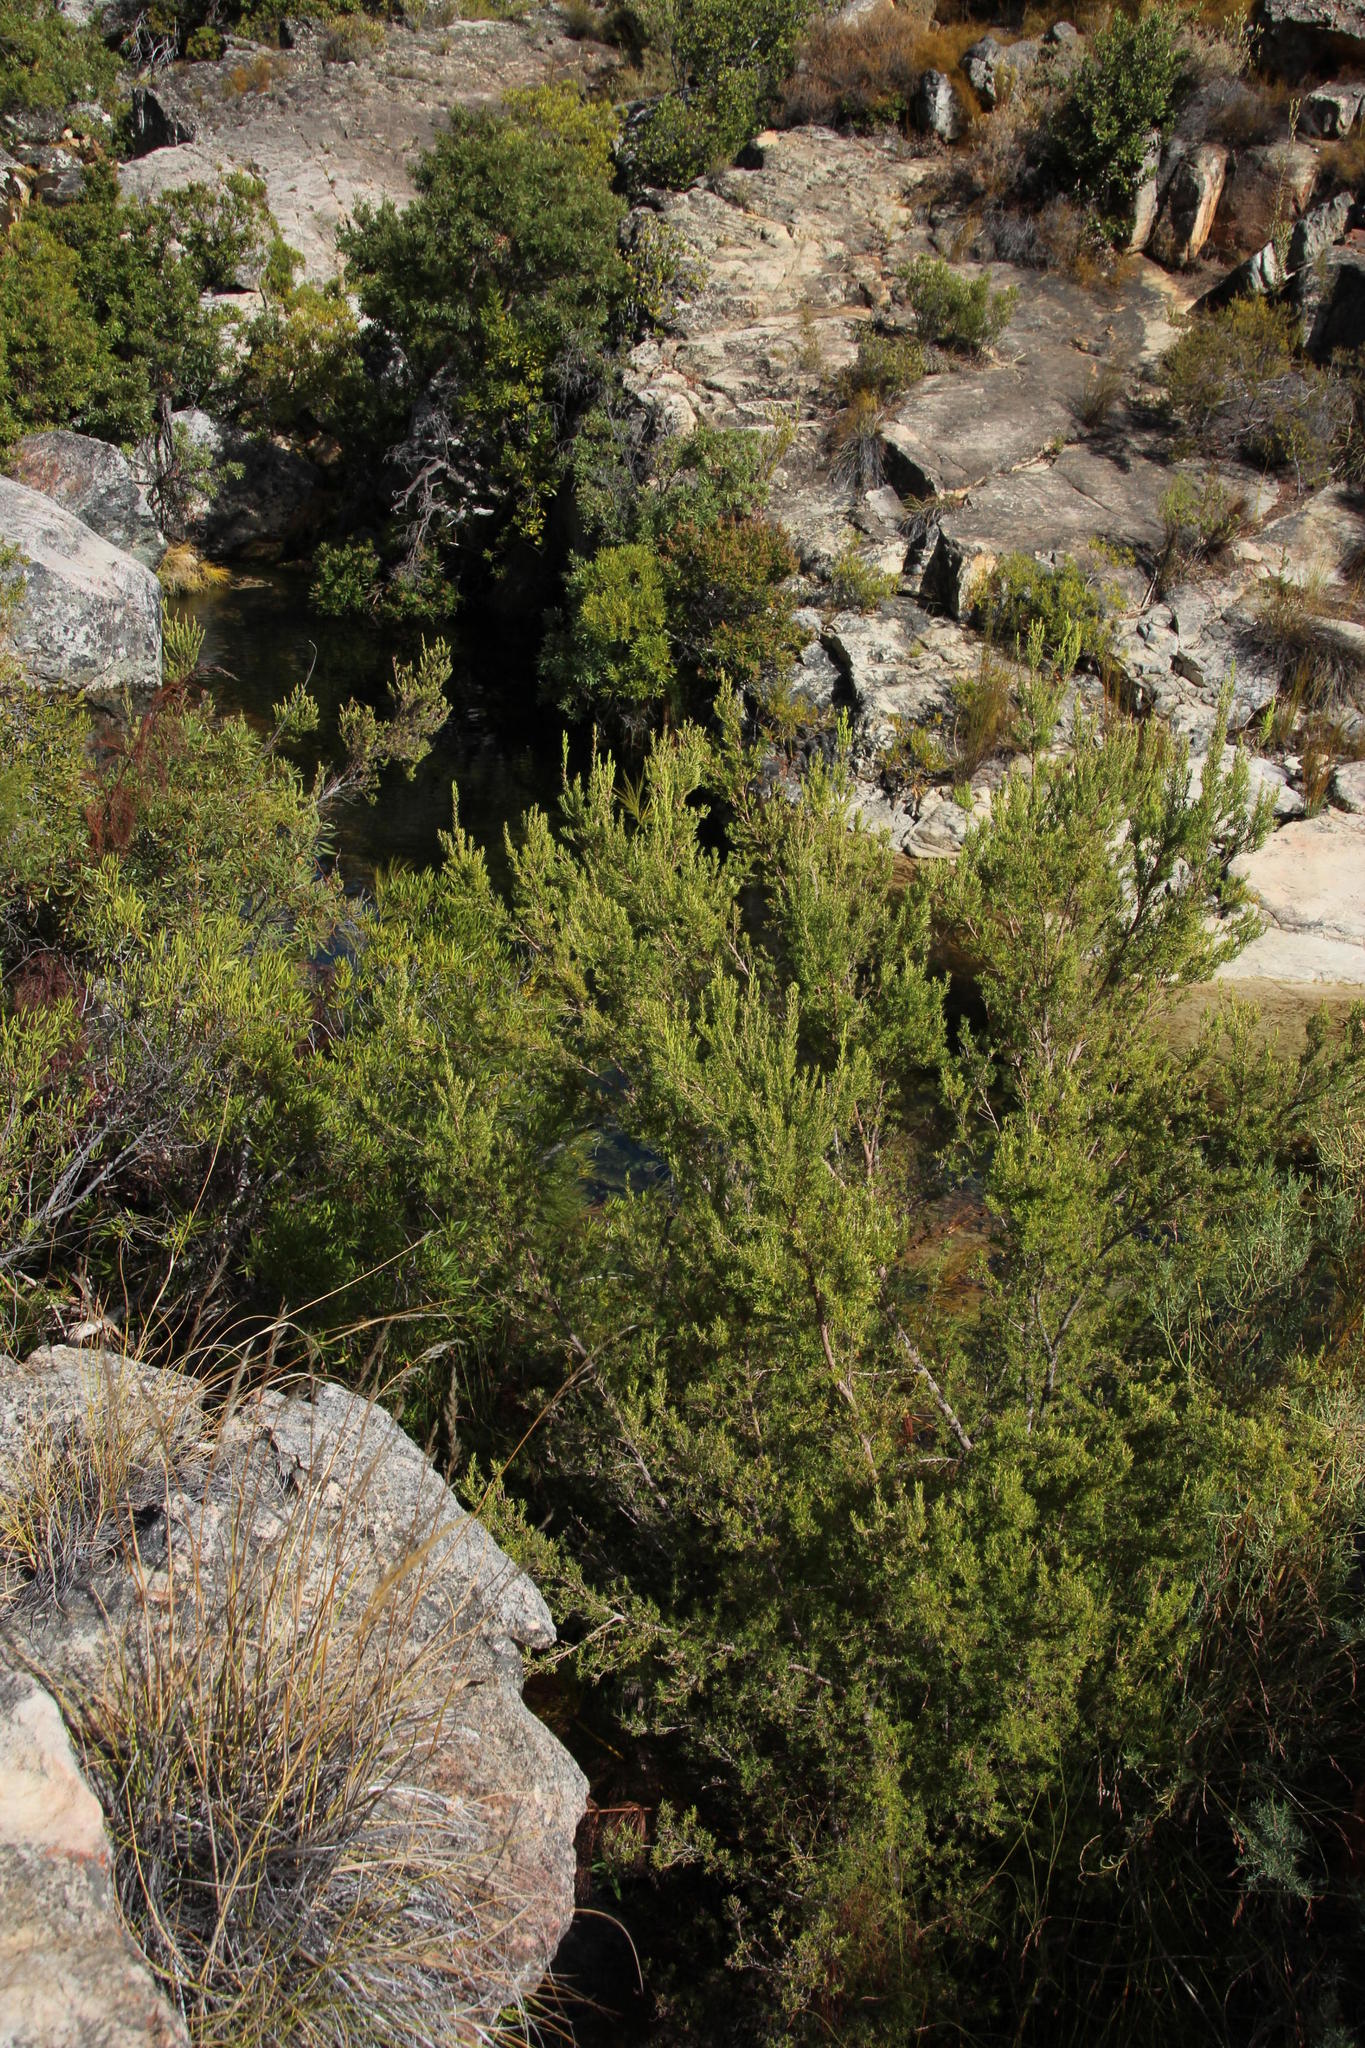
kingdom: Plantae
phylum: Tracheophyta
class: Magnoliopsida
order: Ericales
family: Ericaceae
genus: Erica
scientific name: Erica caffra
